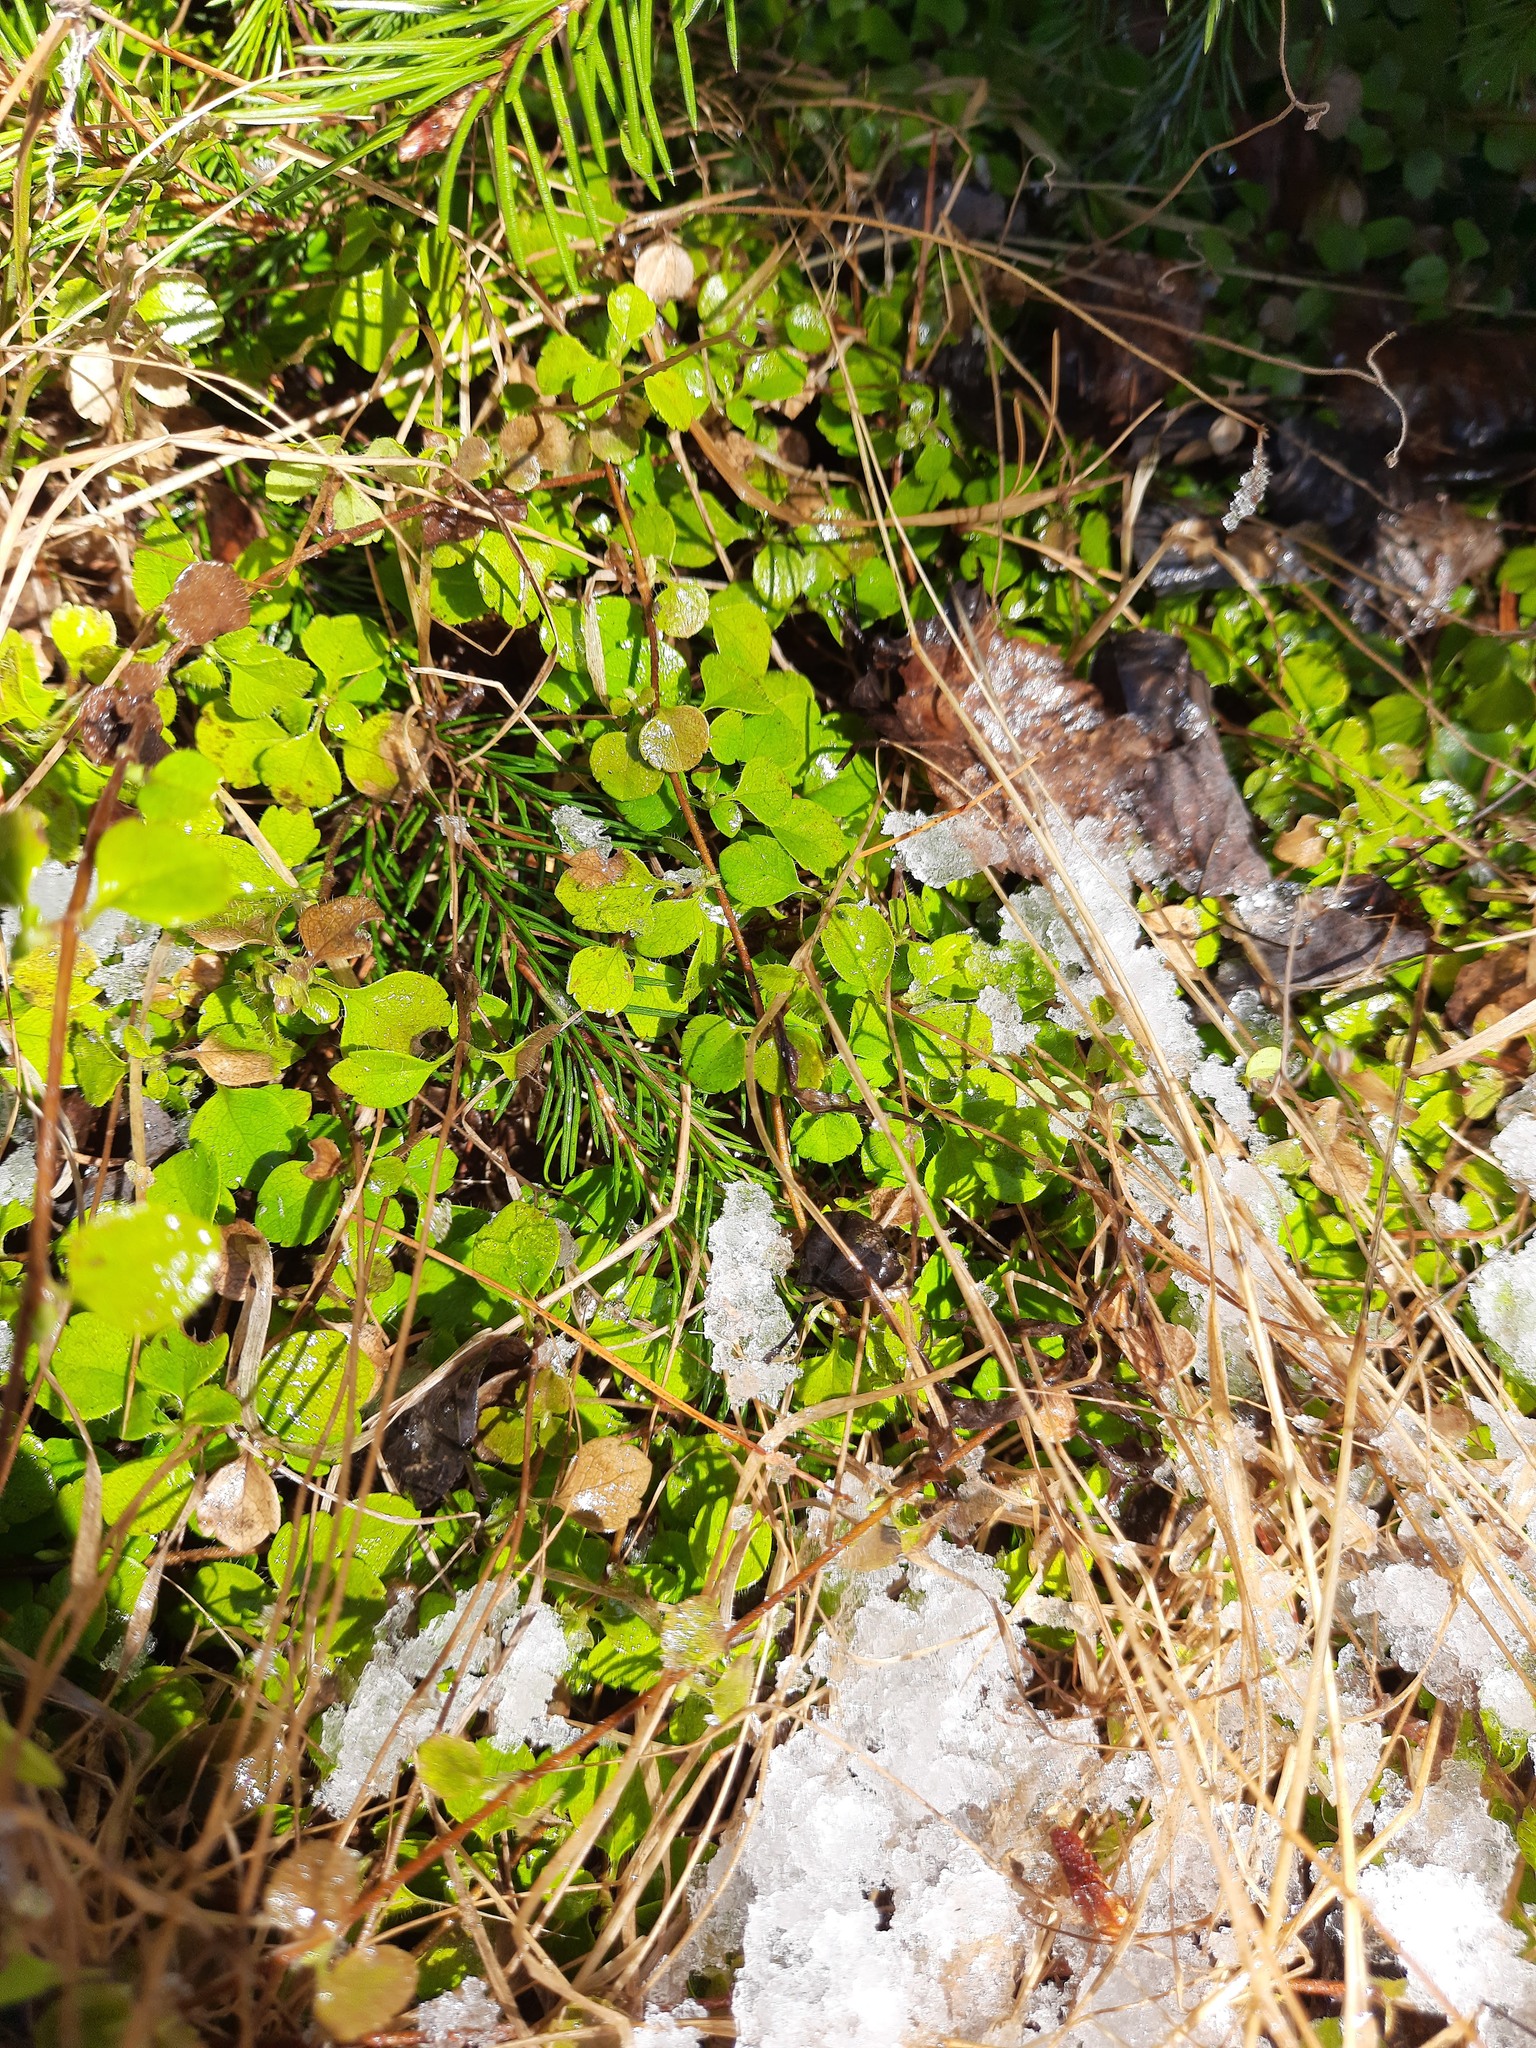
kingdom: Plantae
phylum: Tracheophyta
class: Magnoliopsida
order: Dipsacales
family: Caprifoliaceae
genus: Linnaea
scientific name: Linnaea borealis
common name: Twinflower
